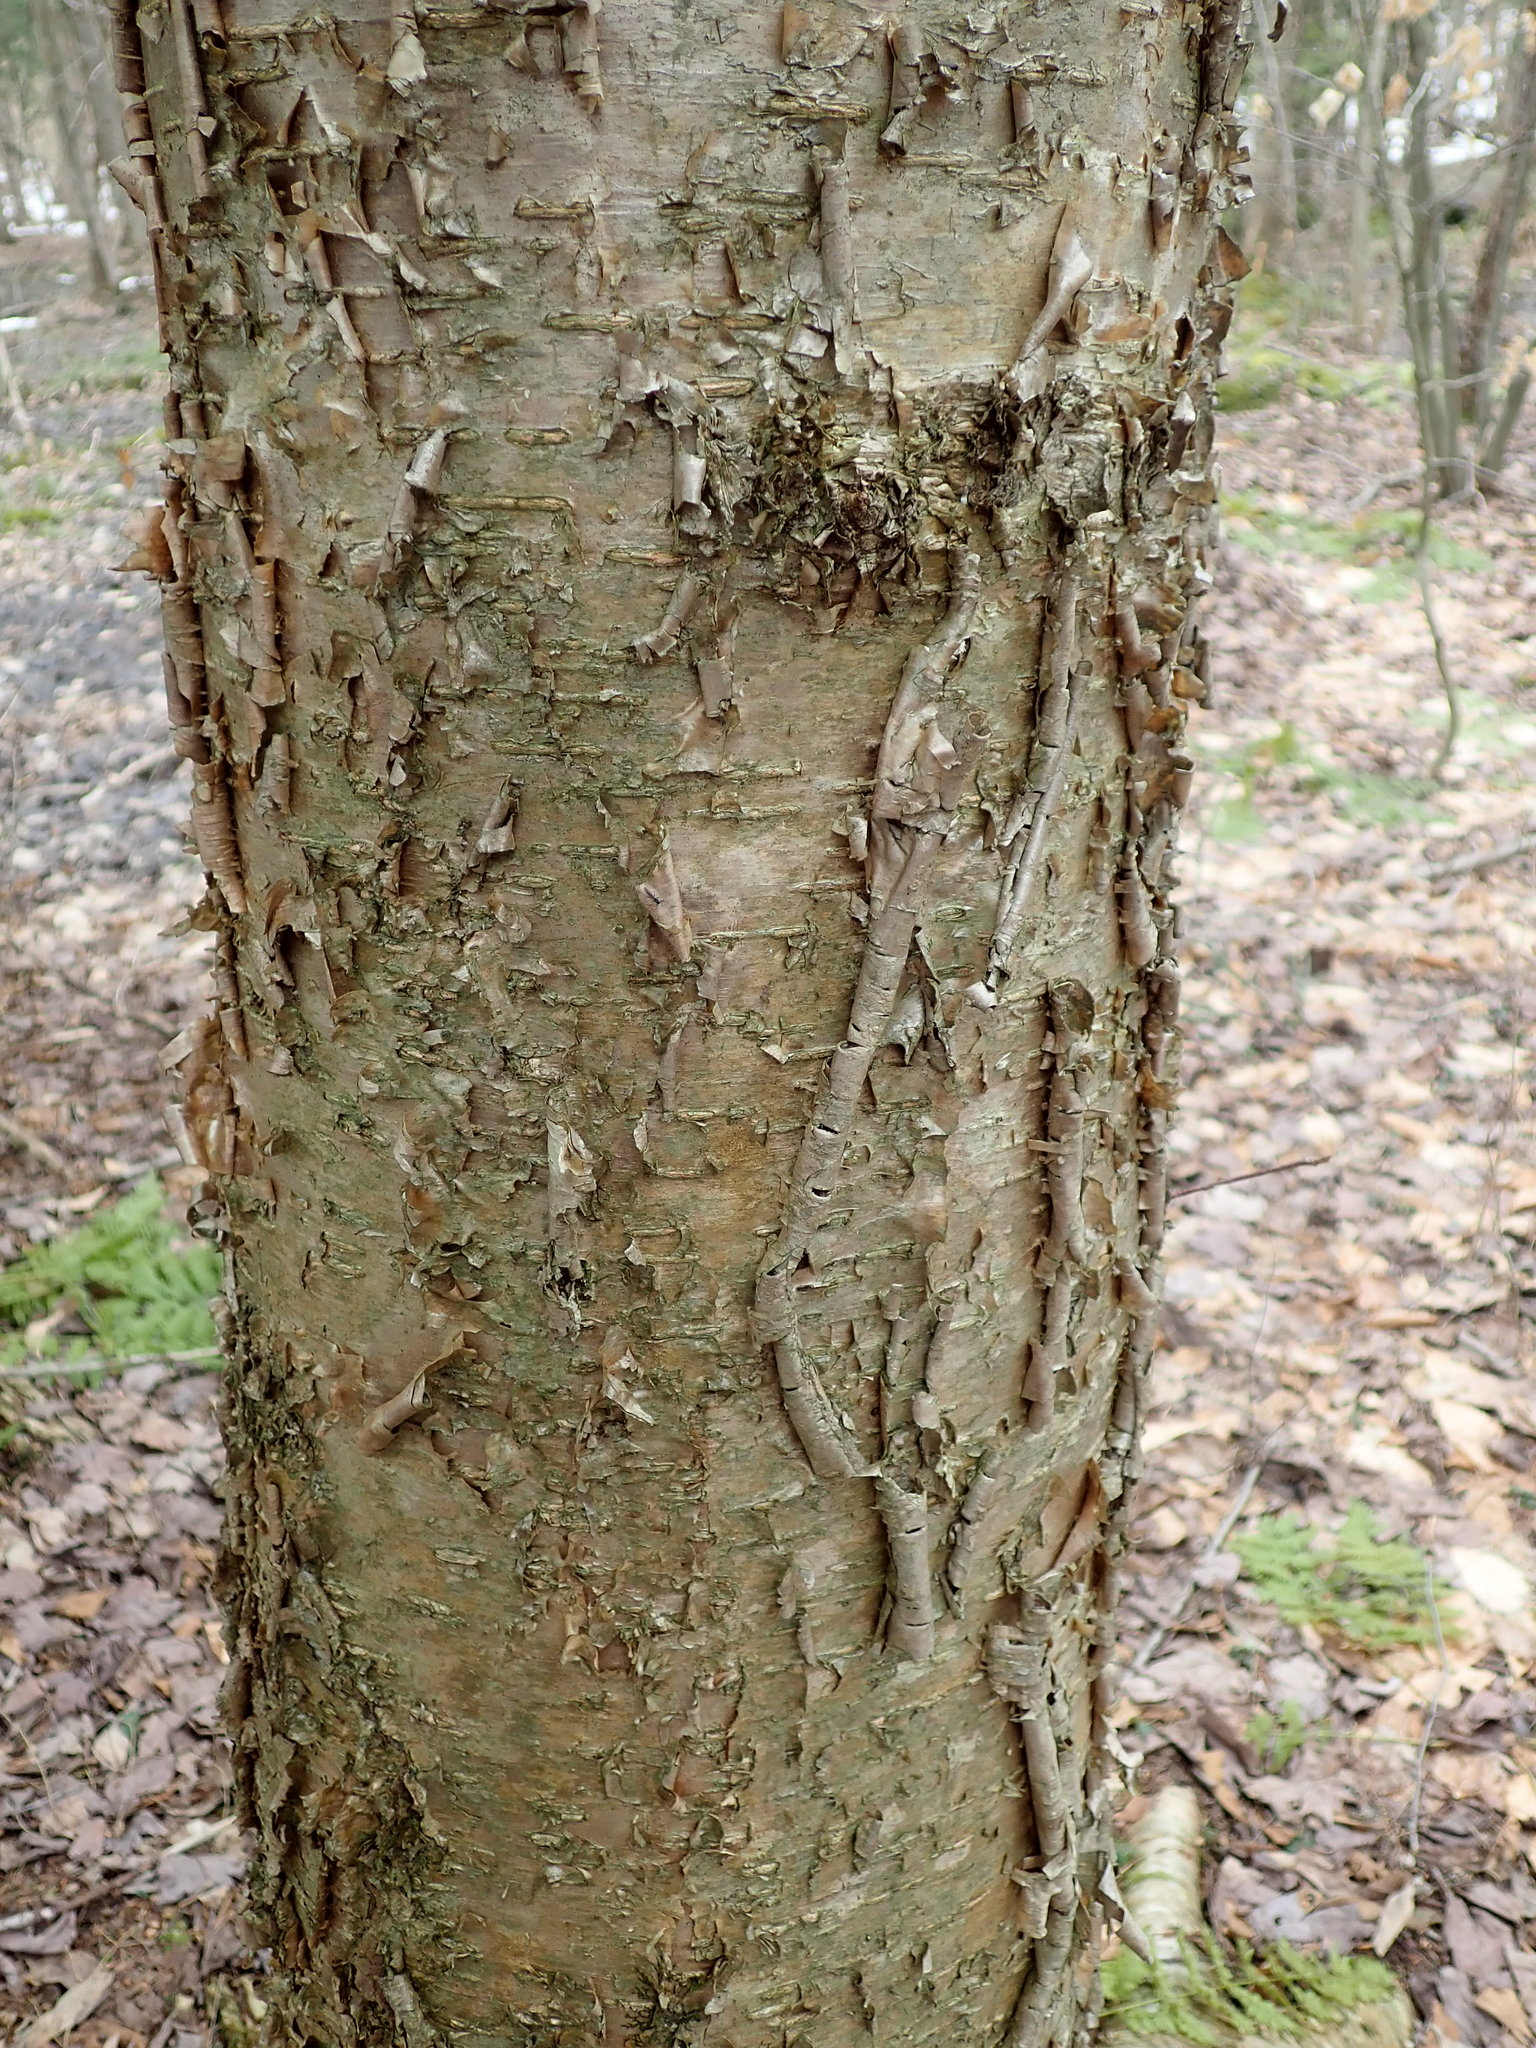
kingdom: Plantae
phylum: Tracheophyta
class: Magnoliopsida
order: Fagales
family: Betulaceae
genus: Betula
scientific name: Betula alleghaniensis
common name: Yellow birch
